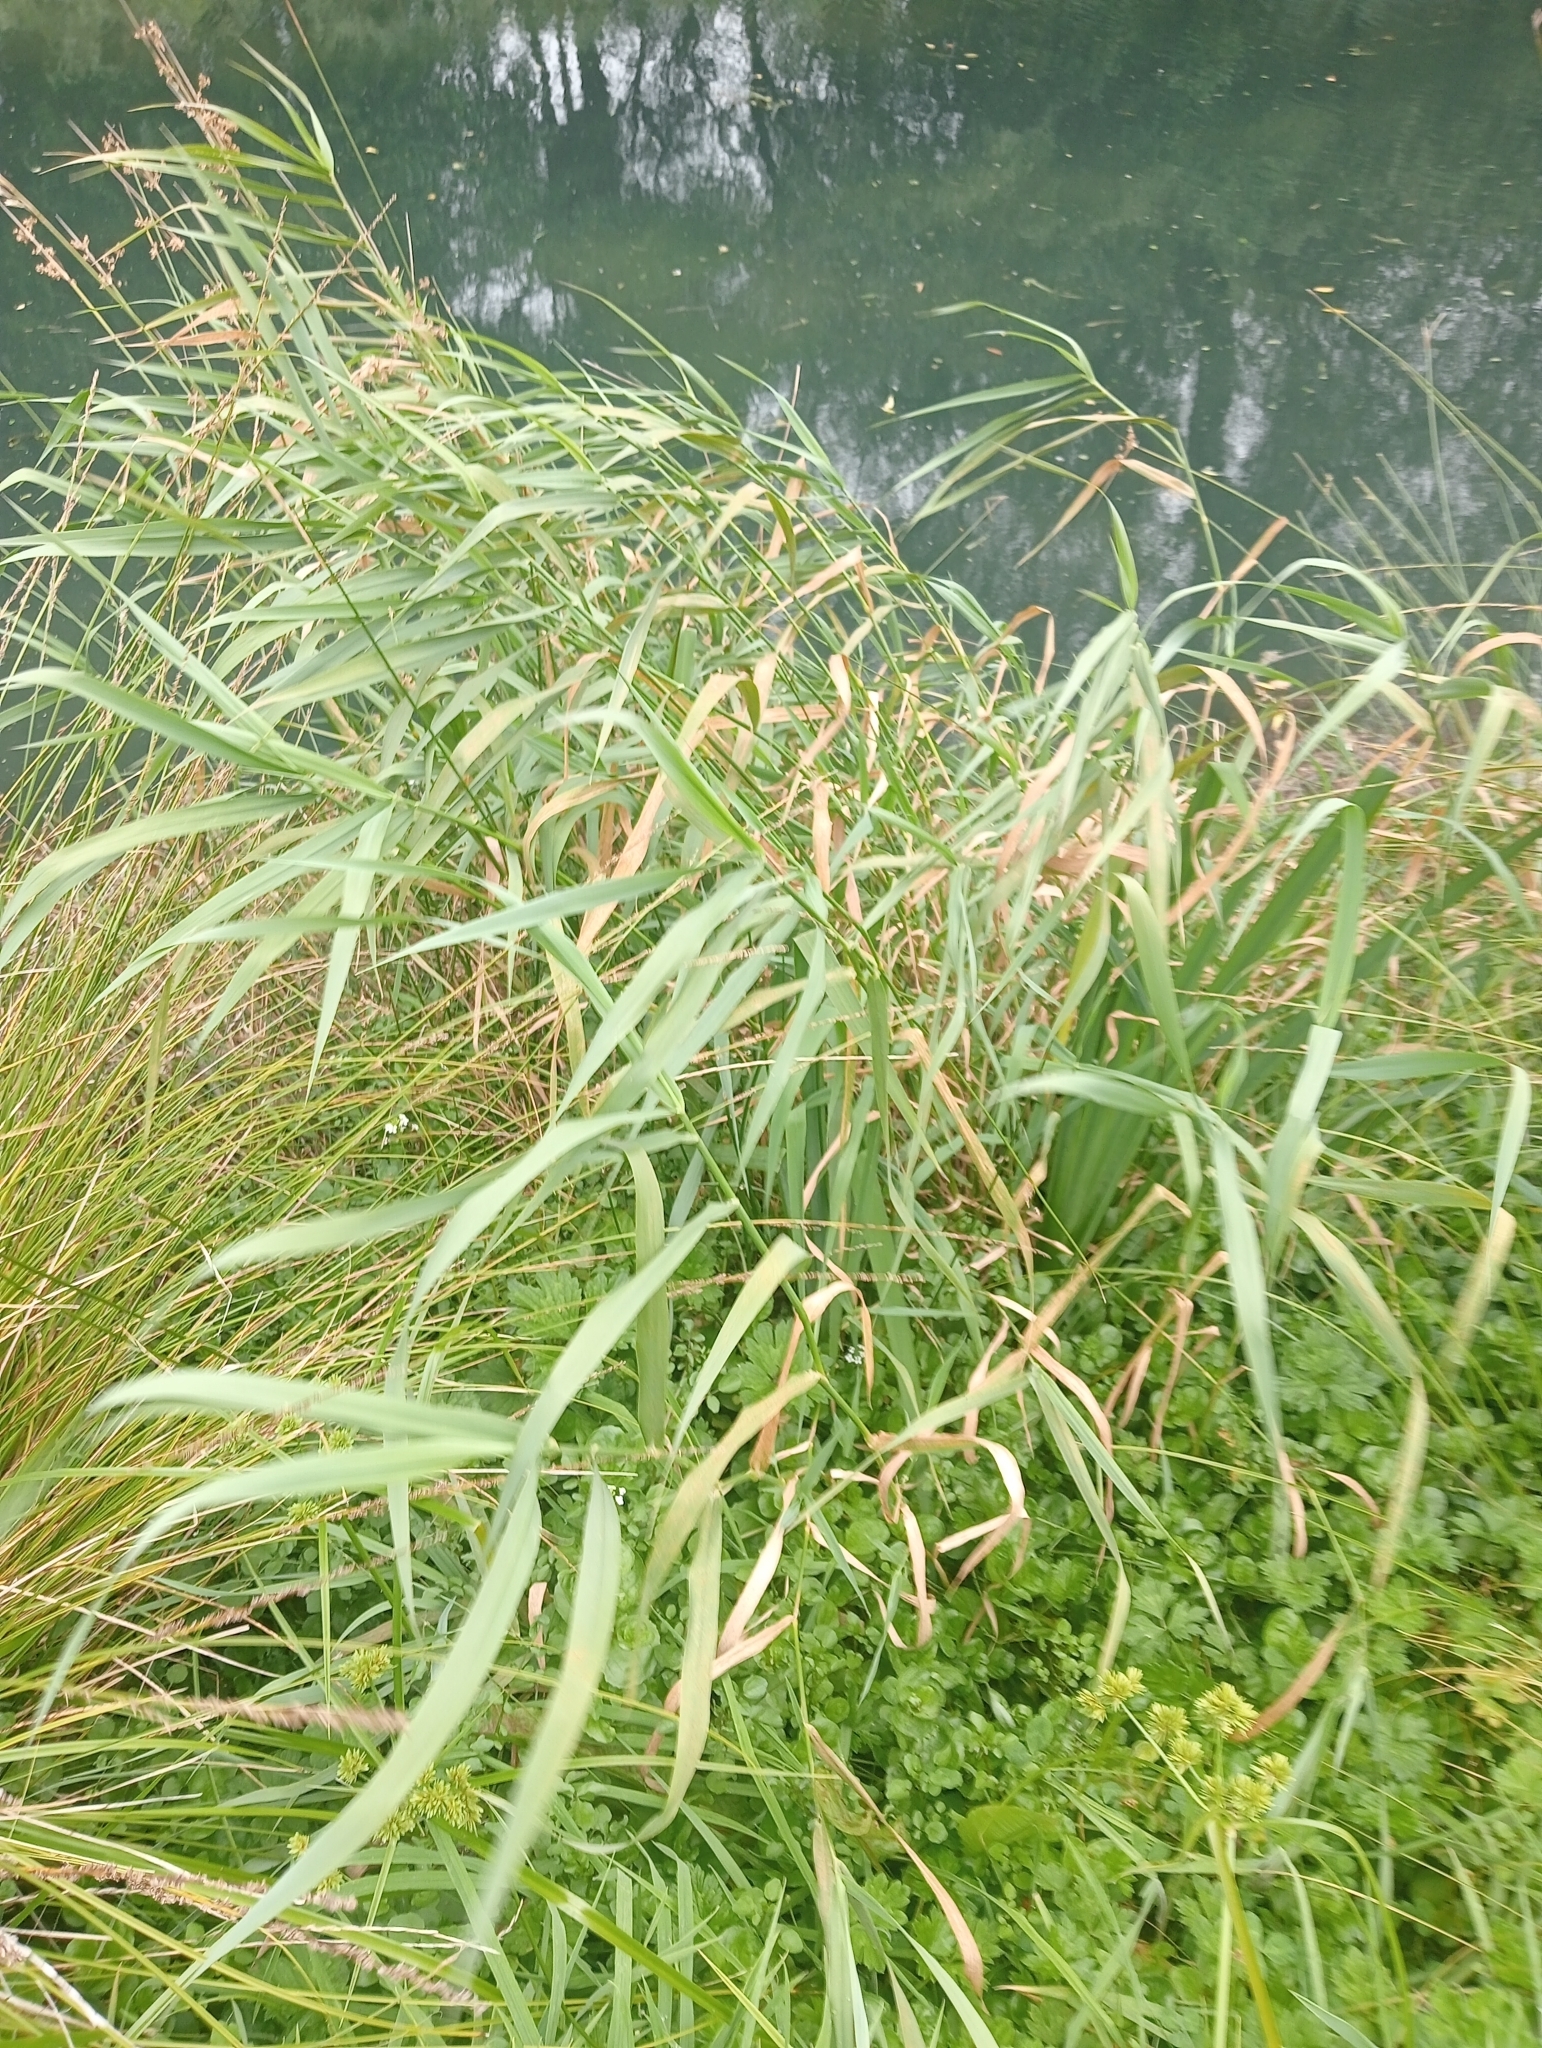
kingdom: Plantae
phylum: Tracheophyta
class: Liliopsida
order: Poales
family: Poaceae
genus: Phalaris
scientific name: Phalaris arundinacea
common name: Reed canary-grass
